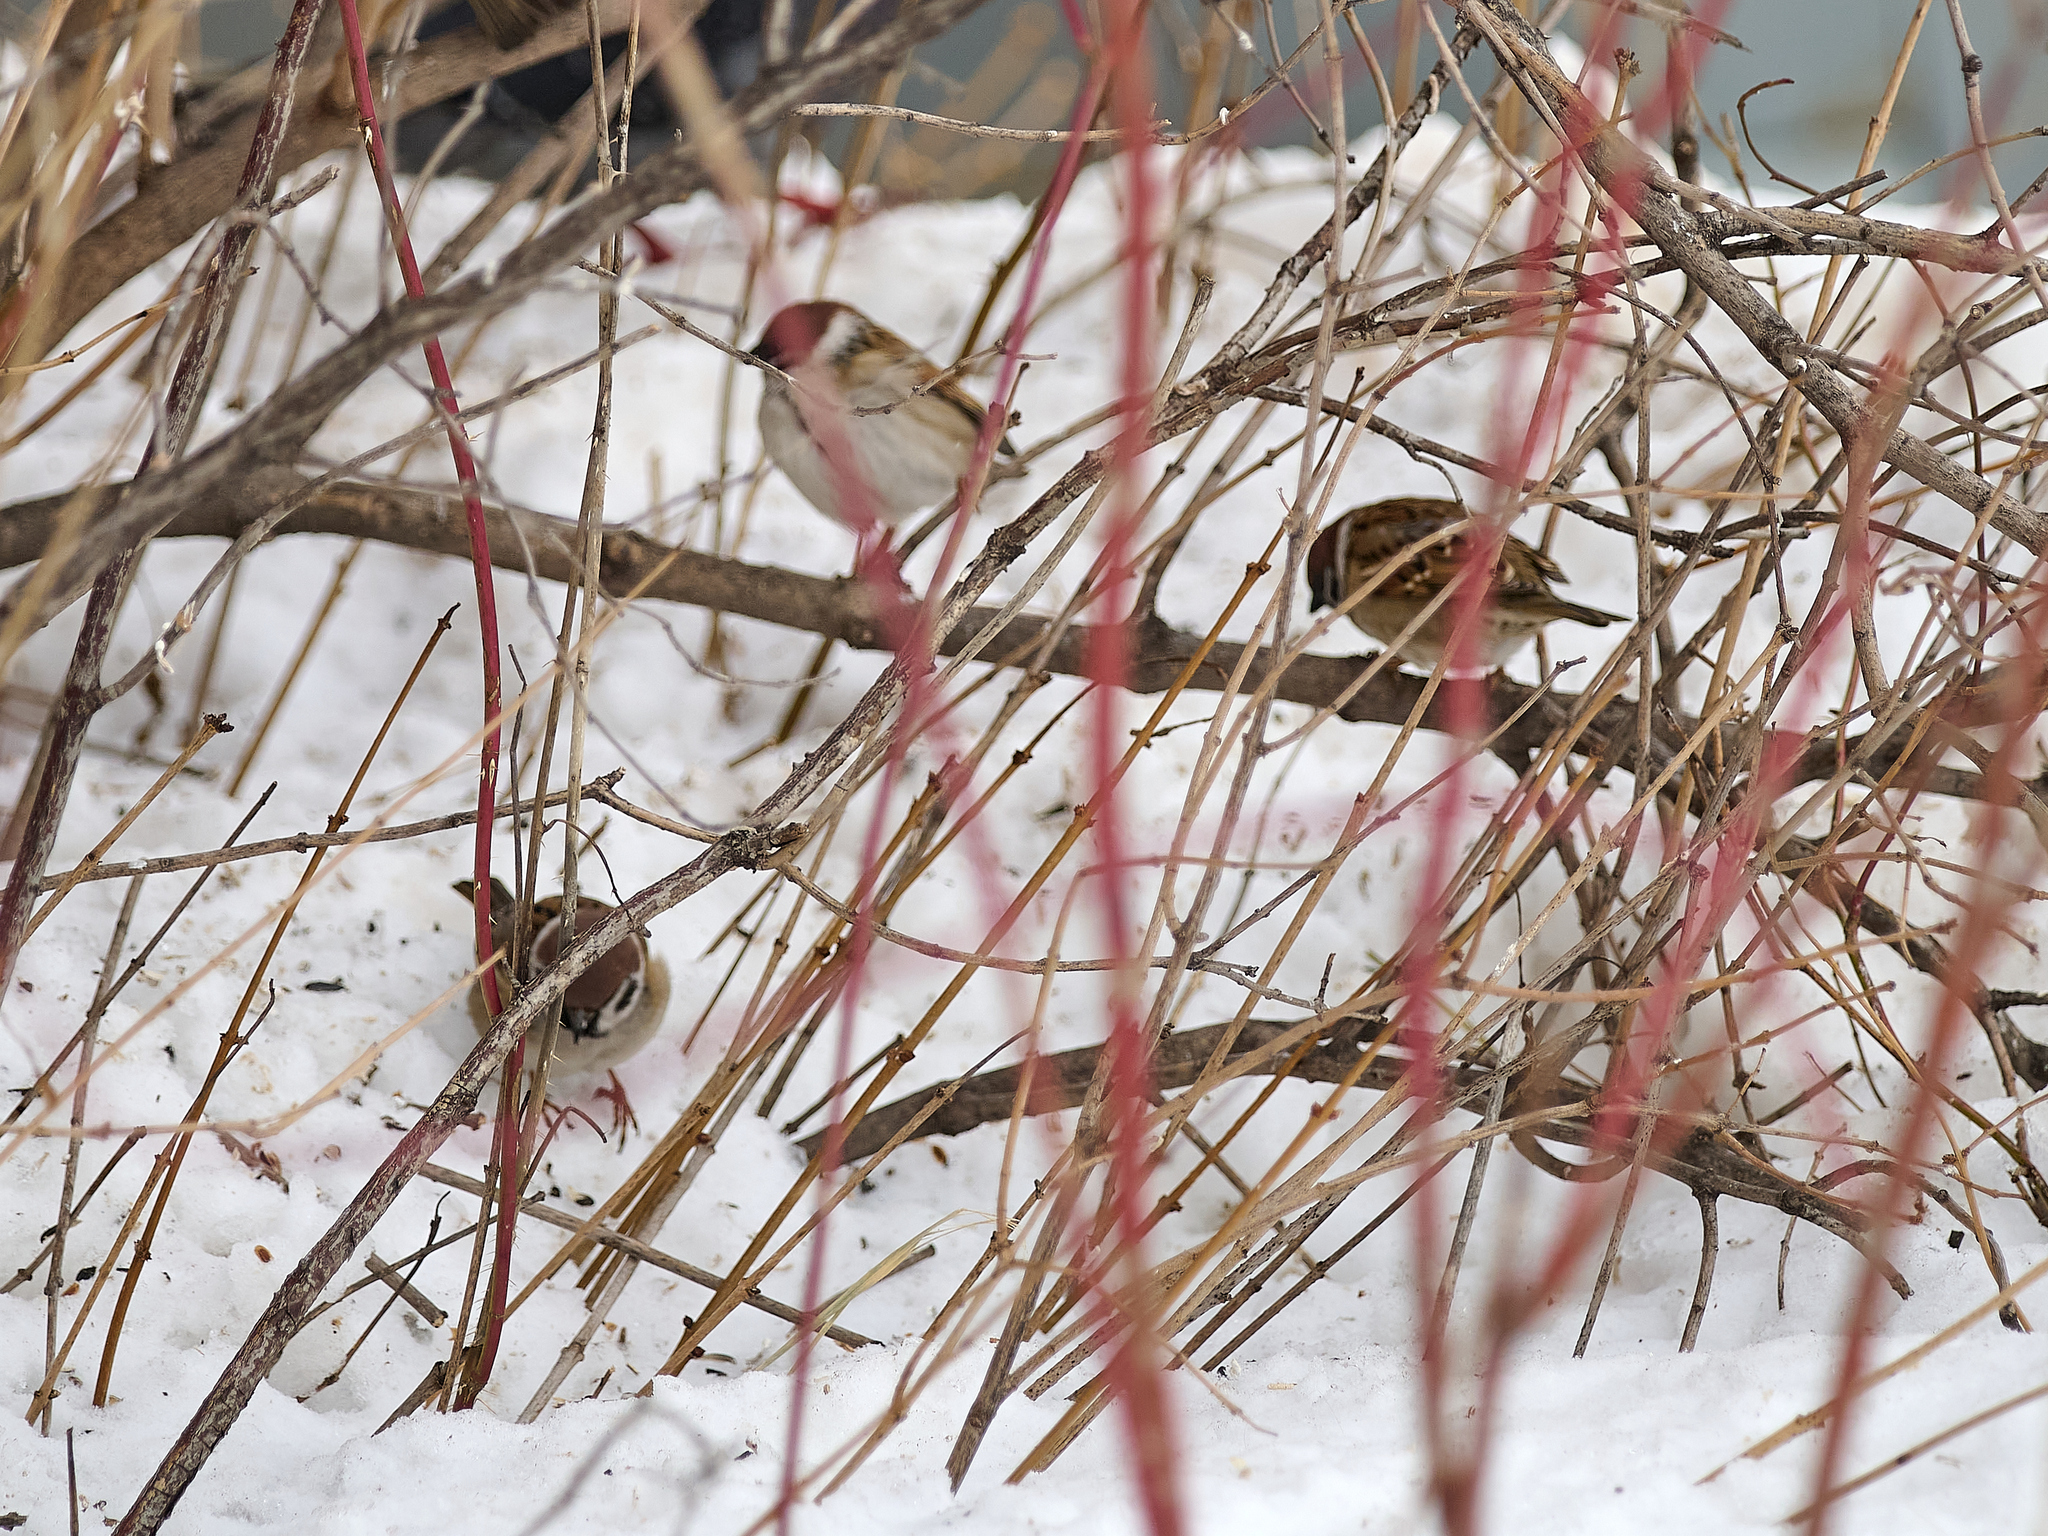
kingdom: Animalia
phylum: Chordata
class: Aves
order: Passeriformes
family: Passeridae
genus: Passer
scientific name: Passer montanus
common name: Eurasian tree sparrow
